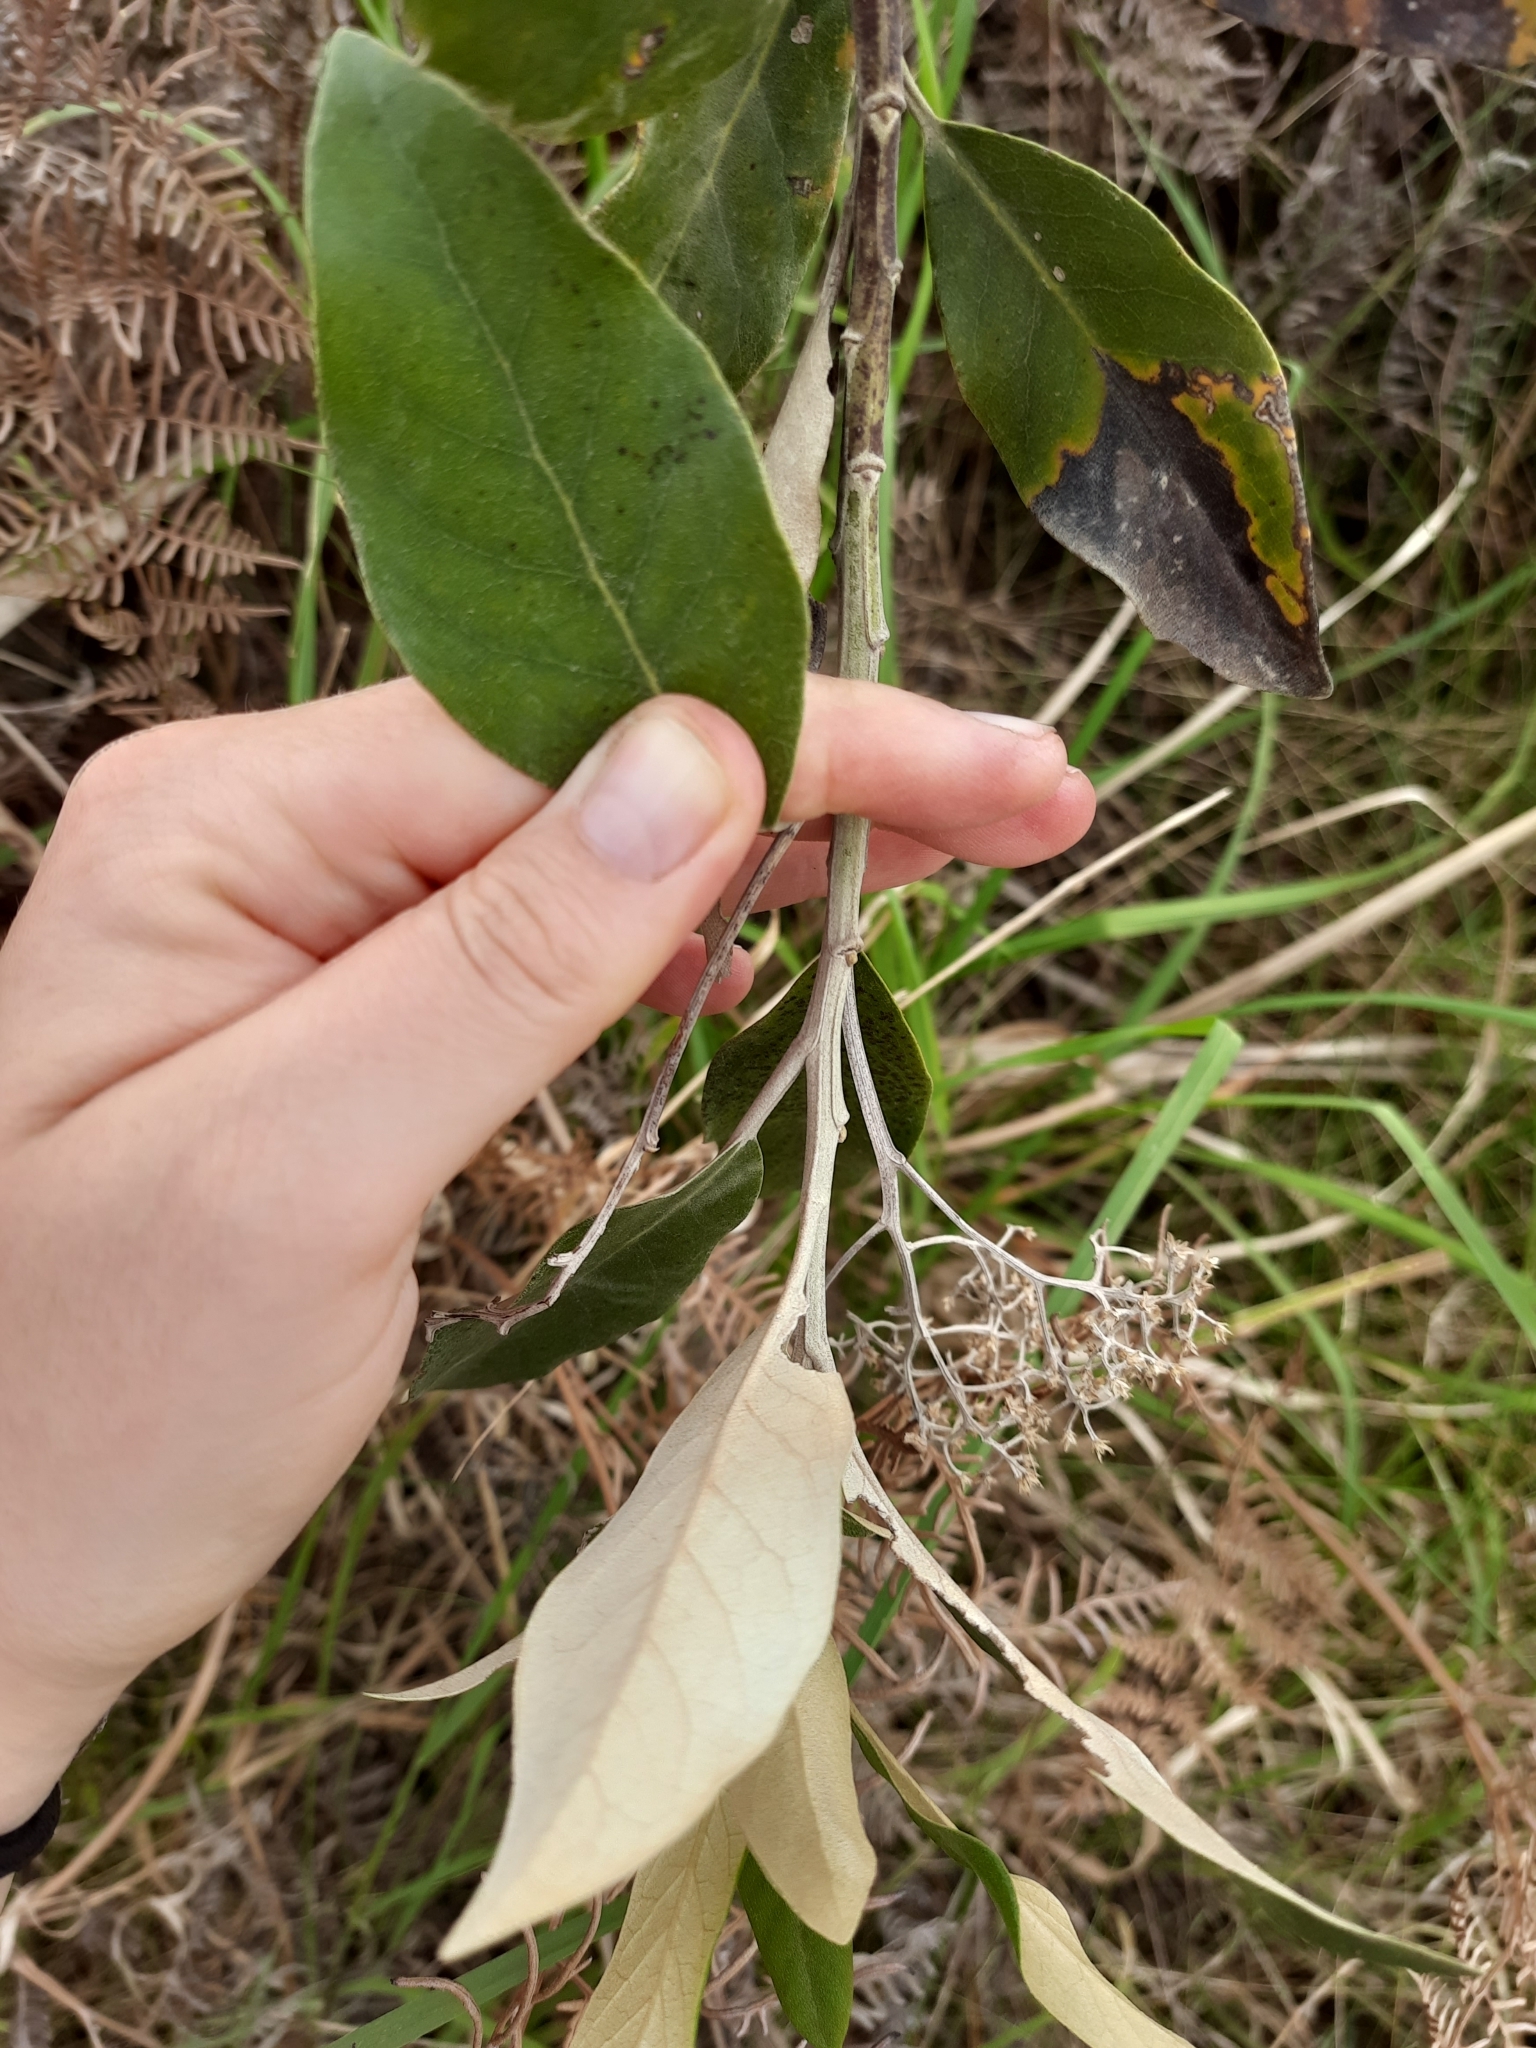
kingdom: Plantae
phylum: Tracheophyta
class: Magnoliopsida
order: Asterales
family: Asteraceae
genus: Olearia
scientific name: Olearia avicenniifolia
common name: Mangrove-leaf daisybush
